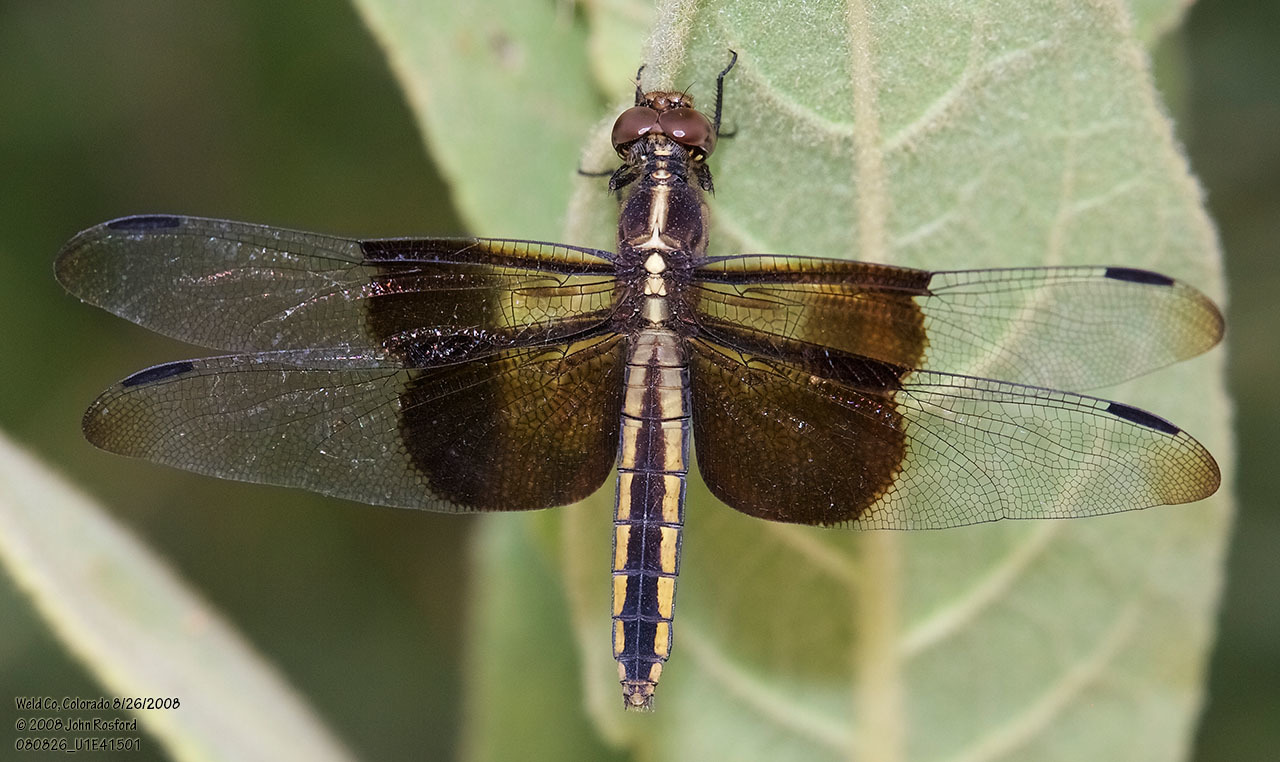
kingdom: Animalia
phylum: Arthropoda
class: Insecta
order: Odonata
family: Libellulidae
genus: Libellula
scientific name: Libellula luctuosa
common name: Widow skimmer
